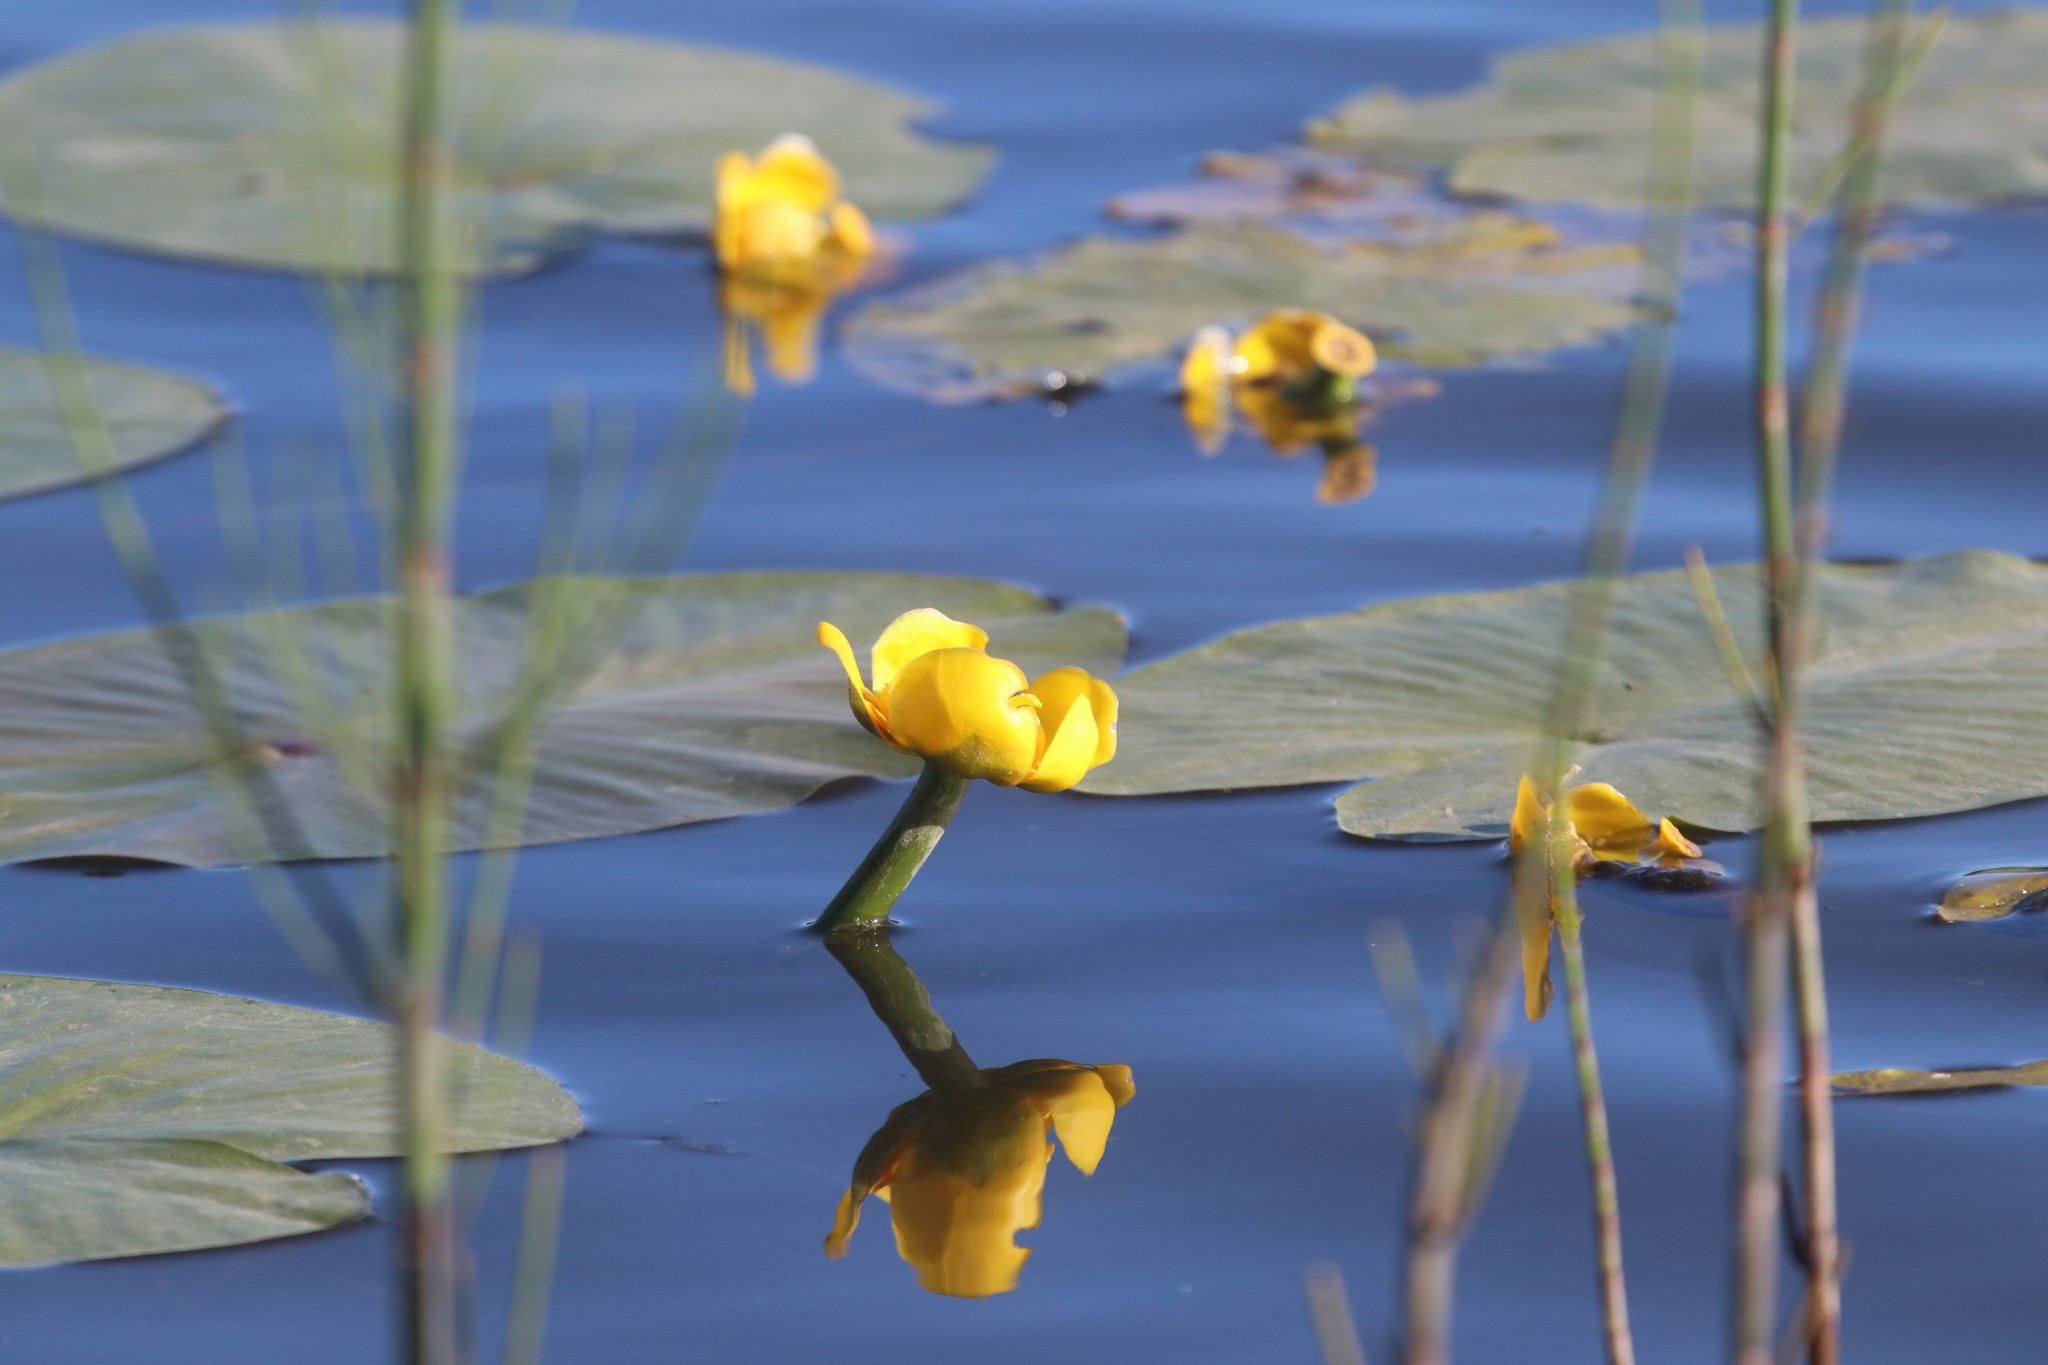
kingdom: Plantae
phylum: Tracheophyta
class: Magnoliopsida
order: Nymphaeales
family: Nymphaeaceae
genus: Nuphar
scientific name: Nuphar lutea
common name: Yellow water-lily
